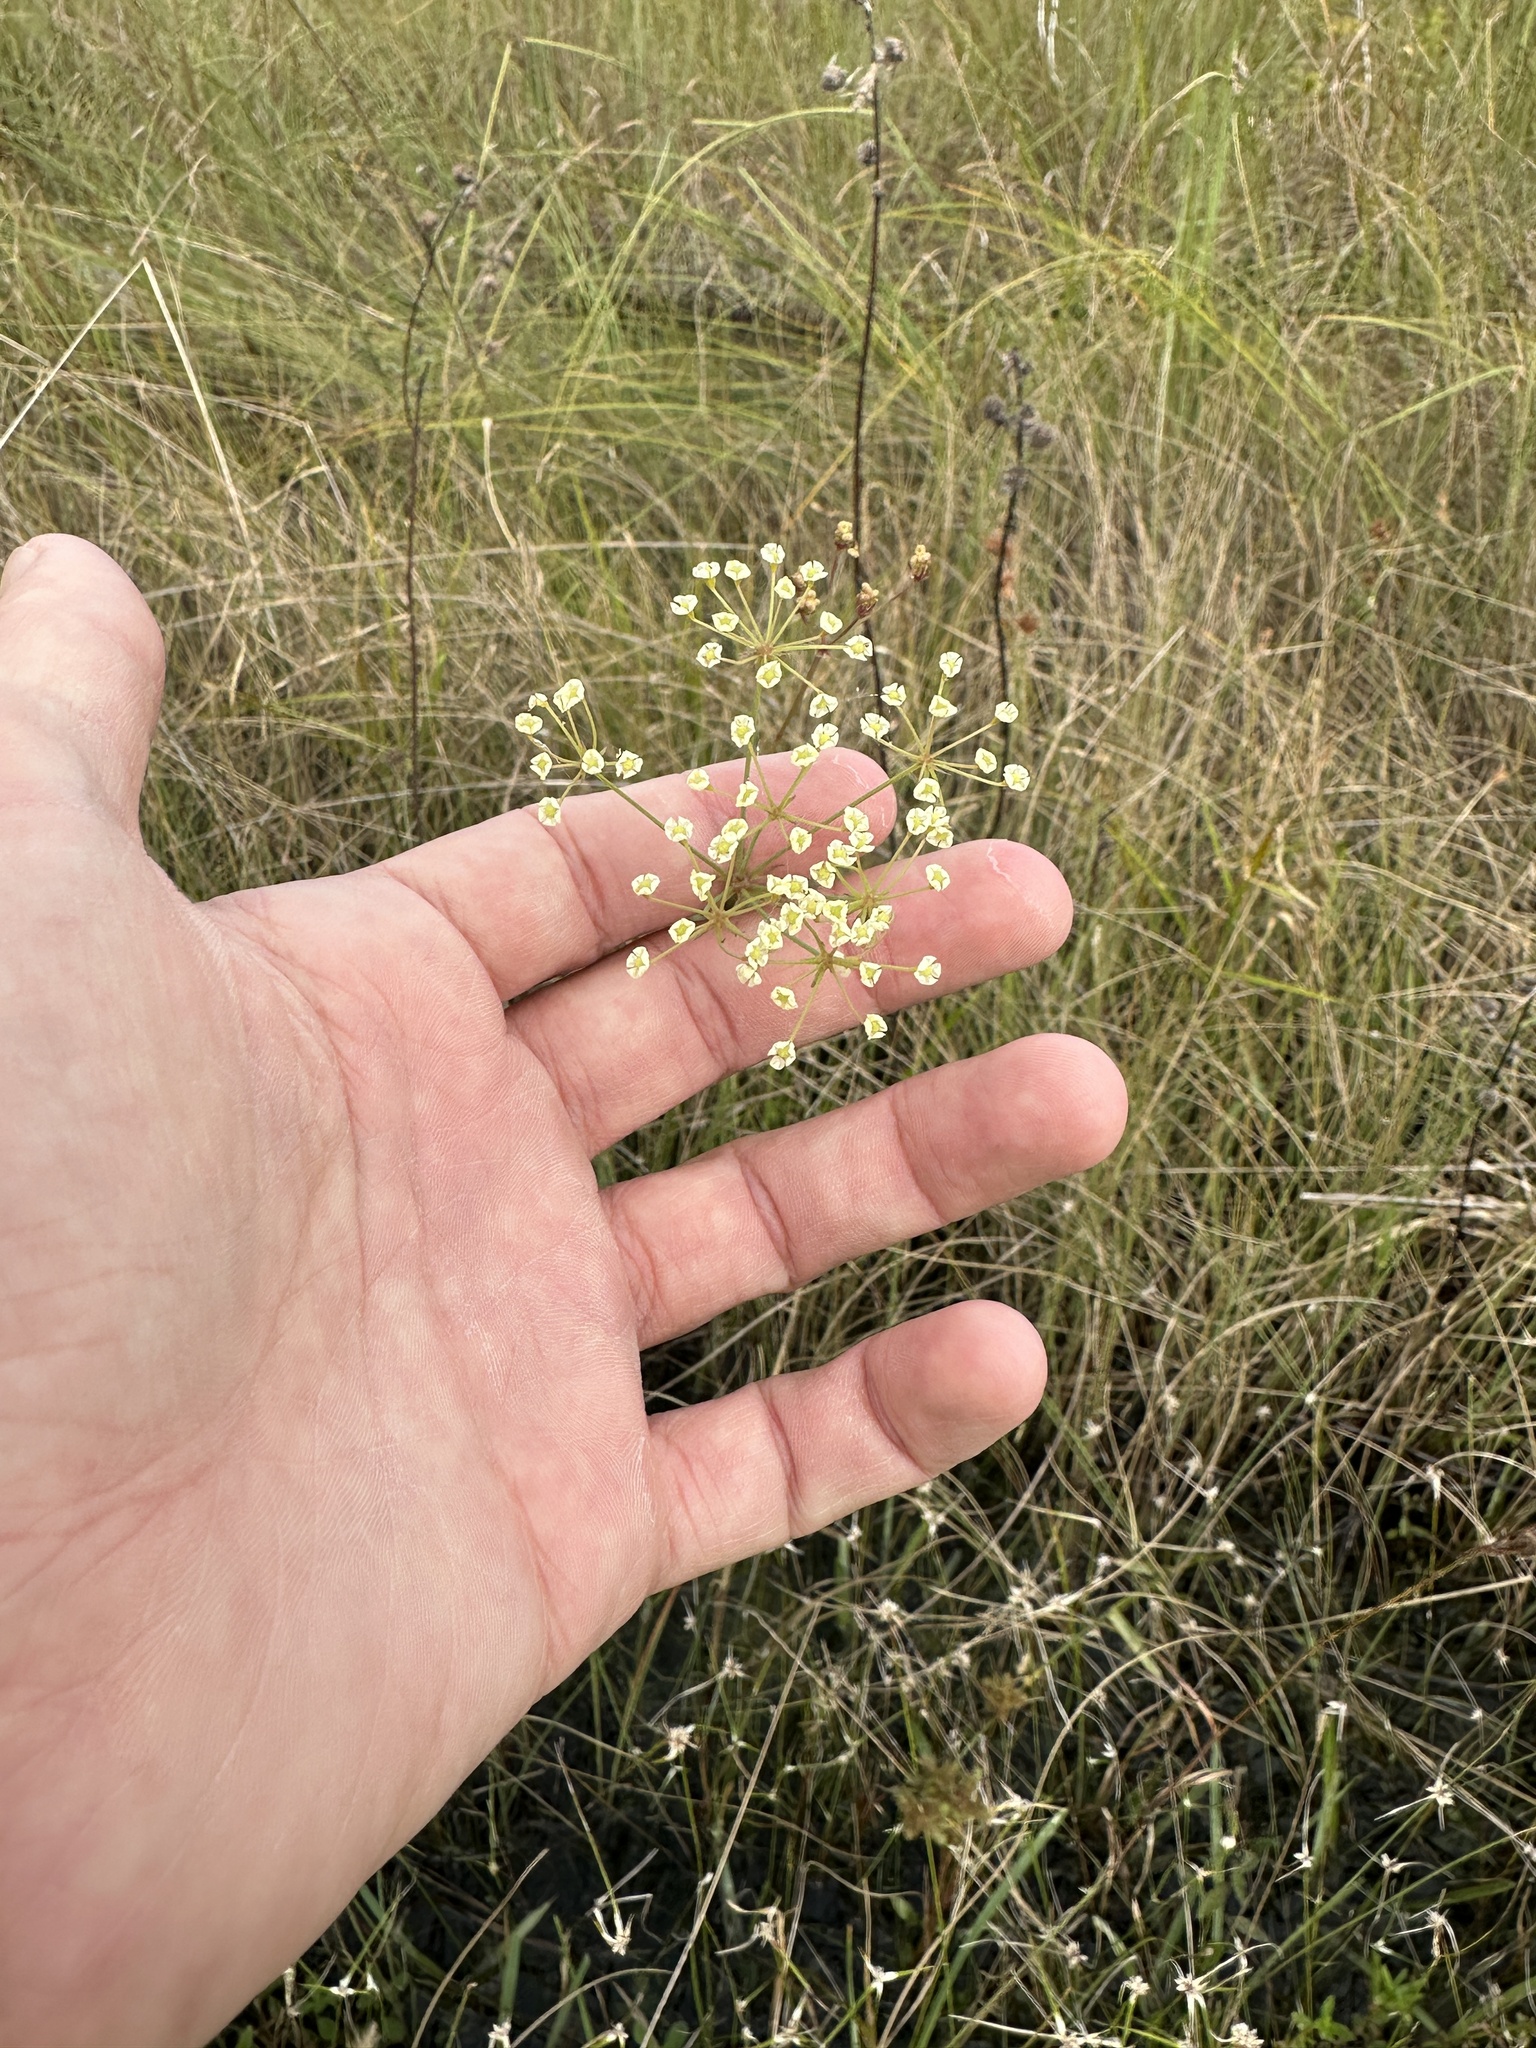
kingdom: Plantae
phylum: Tracheophyta
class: Magnoliopsida
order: Apiales
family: Apiaceae
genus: Tiedemannia
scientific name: Tiedemannia filiformis
